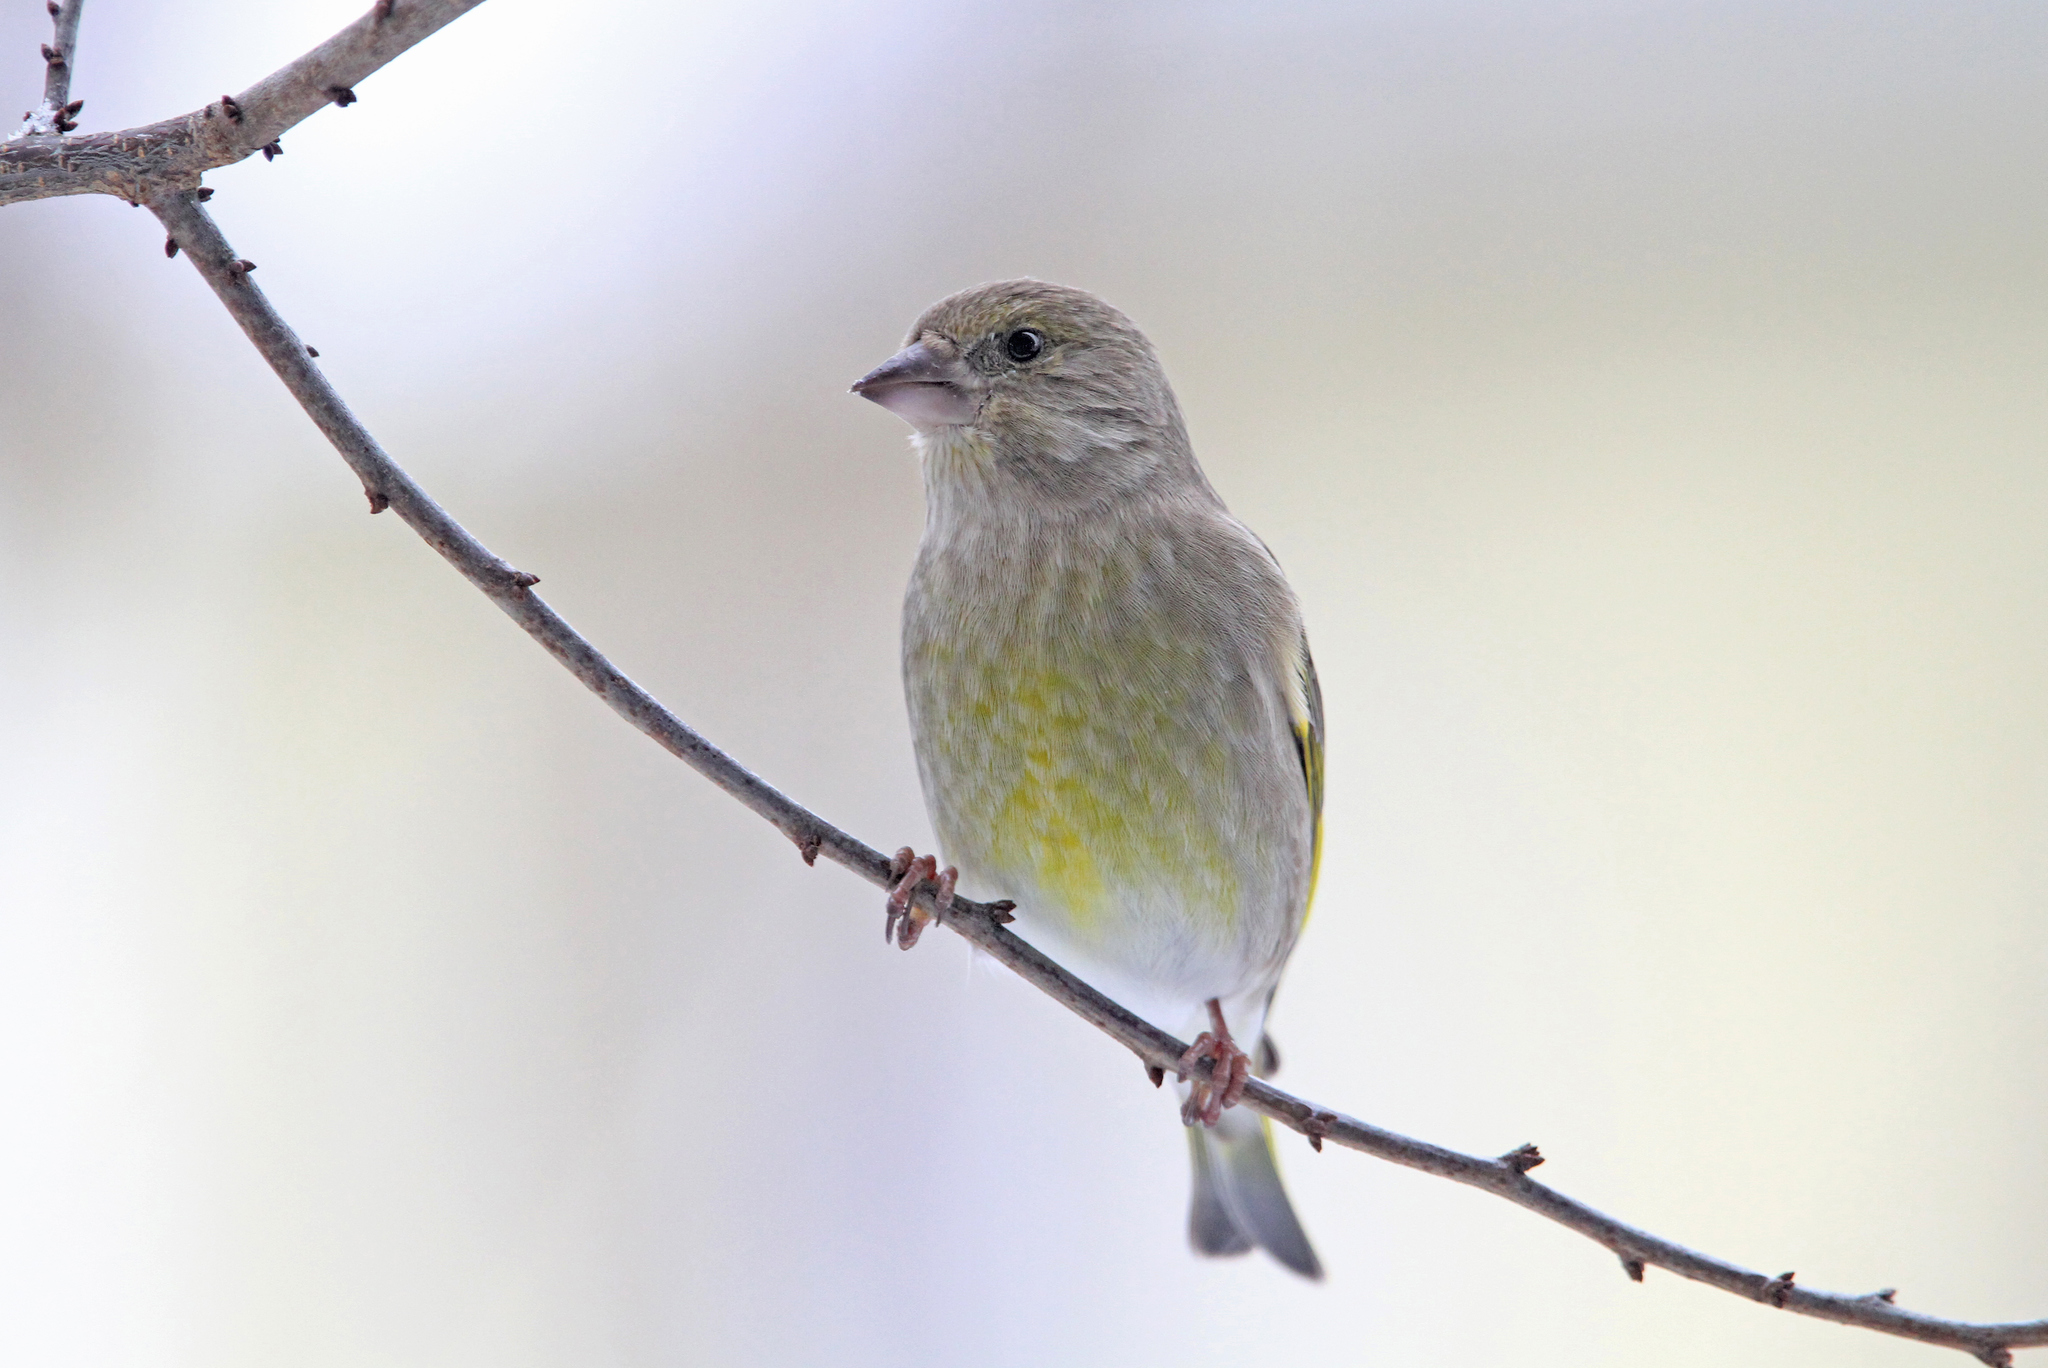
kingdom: Plantae
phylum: Tracheophyta
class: Liliopsida
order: Poales
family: Poaceae
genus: Chloris
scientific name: Chloris chloris
